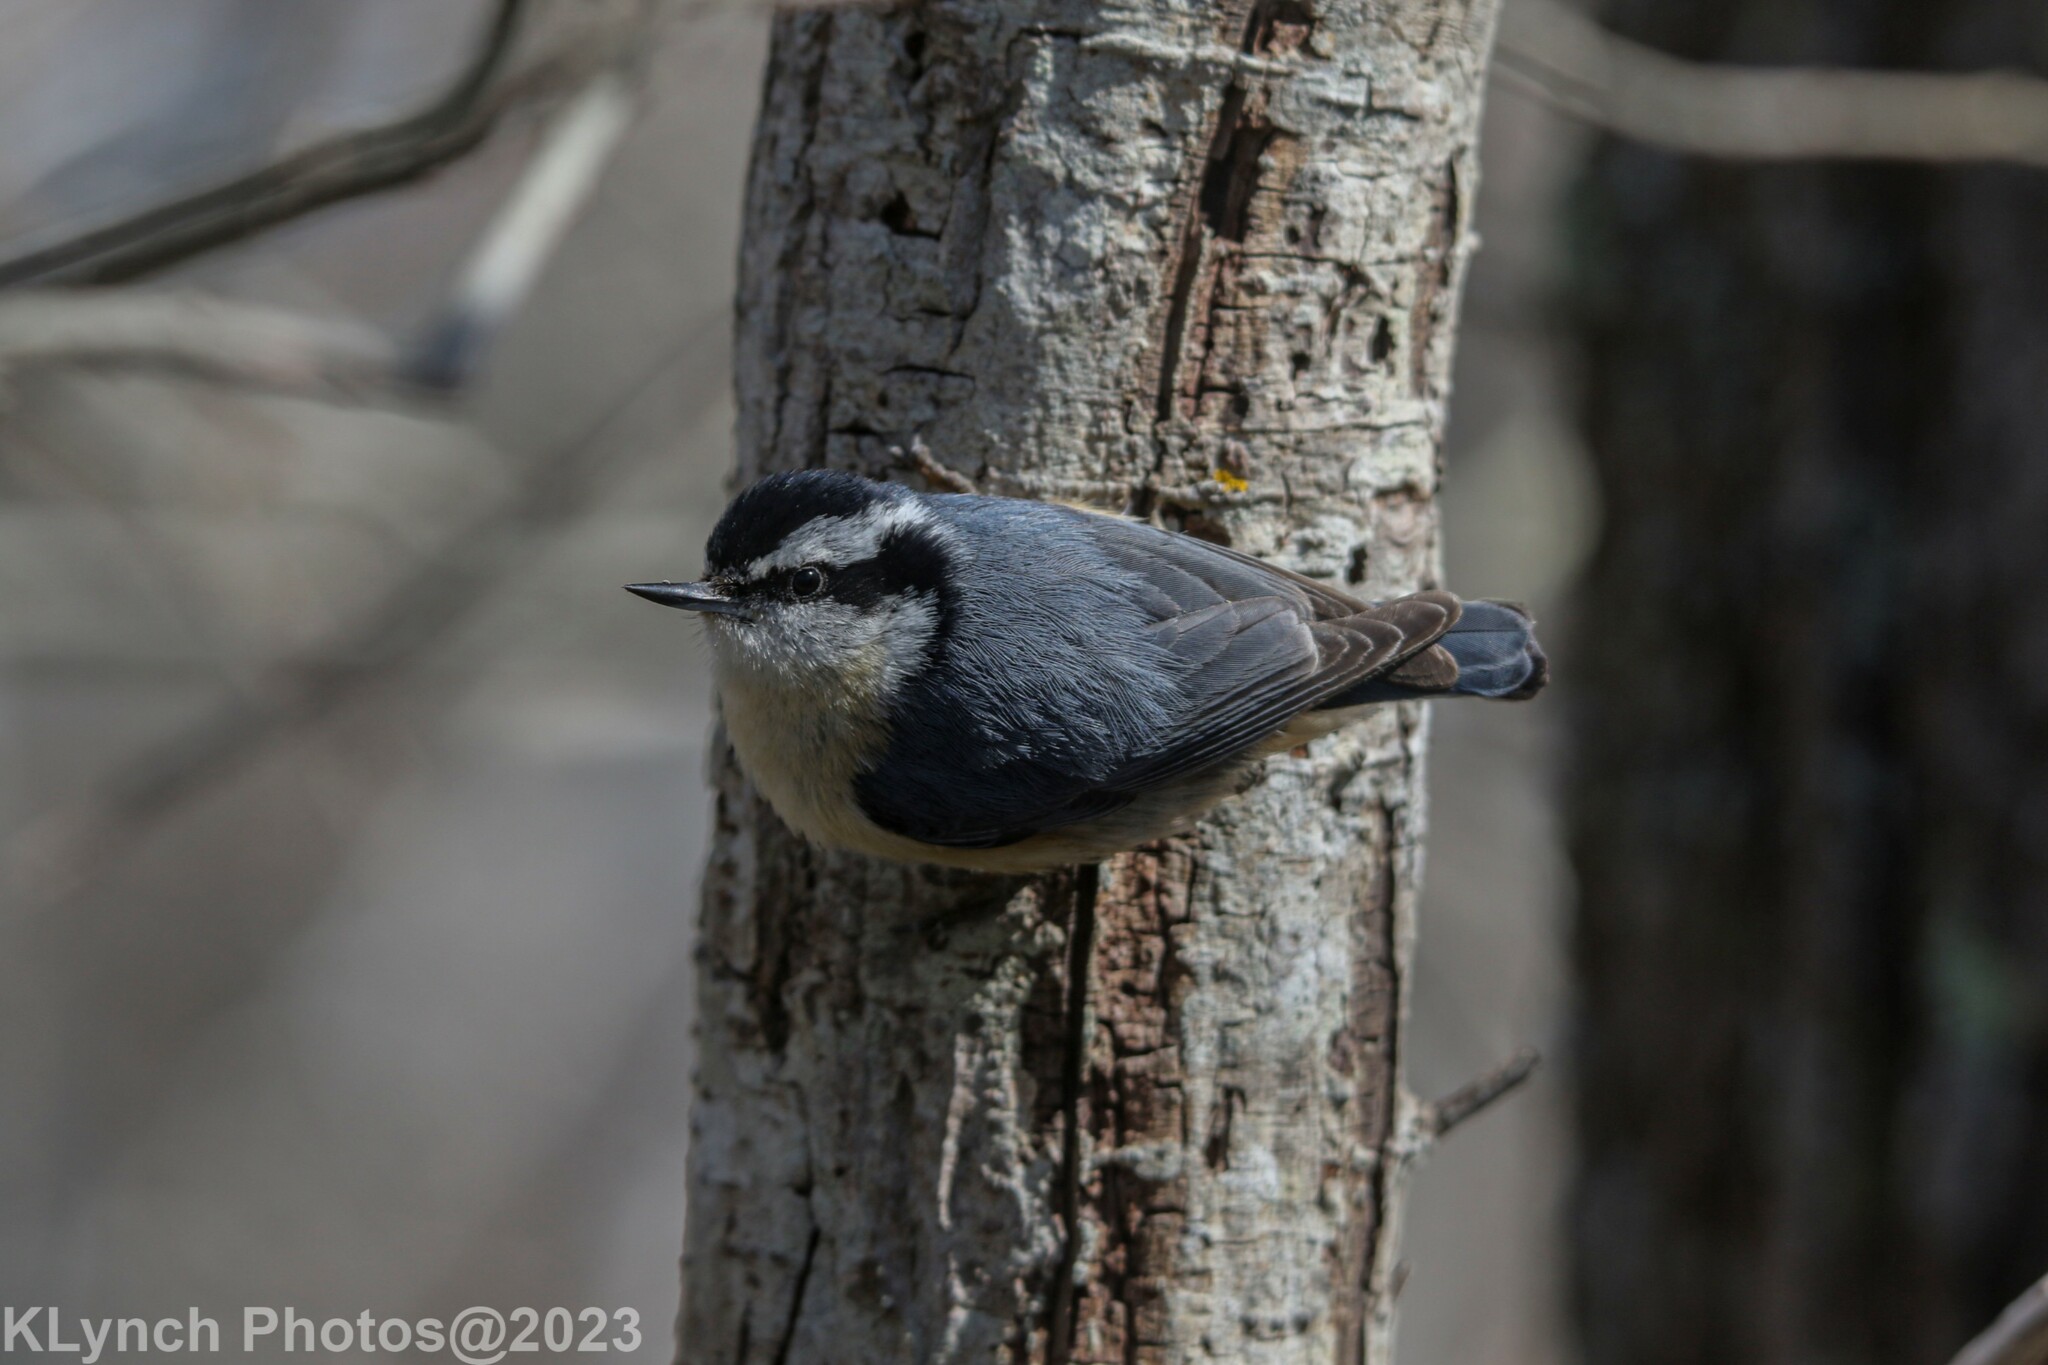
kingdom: Animalia
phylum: Chordata
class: Aves
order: Passeriformes
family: Sittidae
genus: Sitta
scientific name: Sitta canadensis
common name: Red-breasted nuthatch
